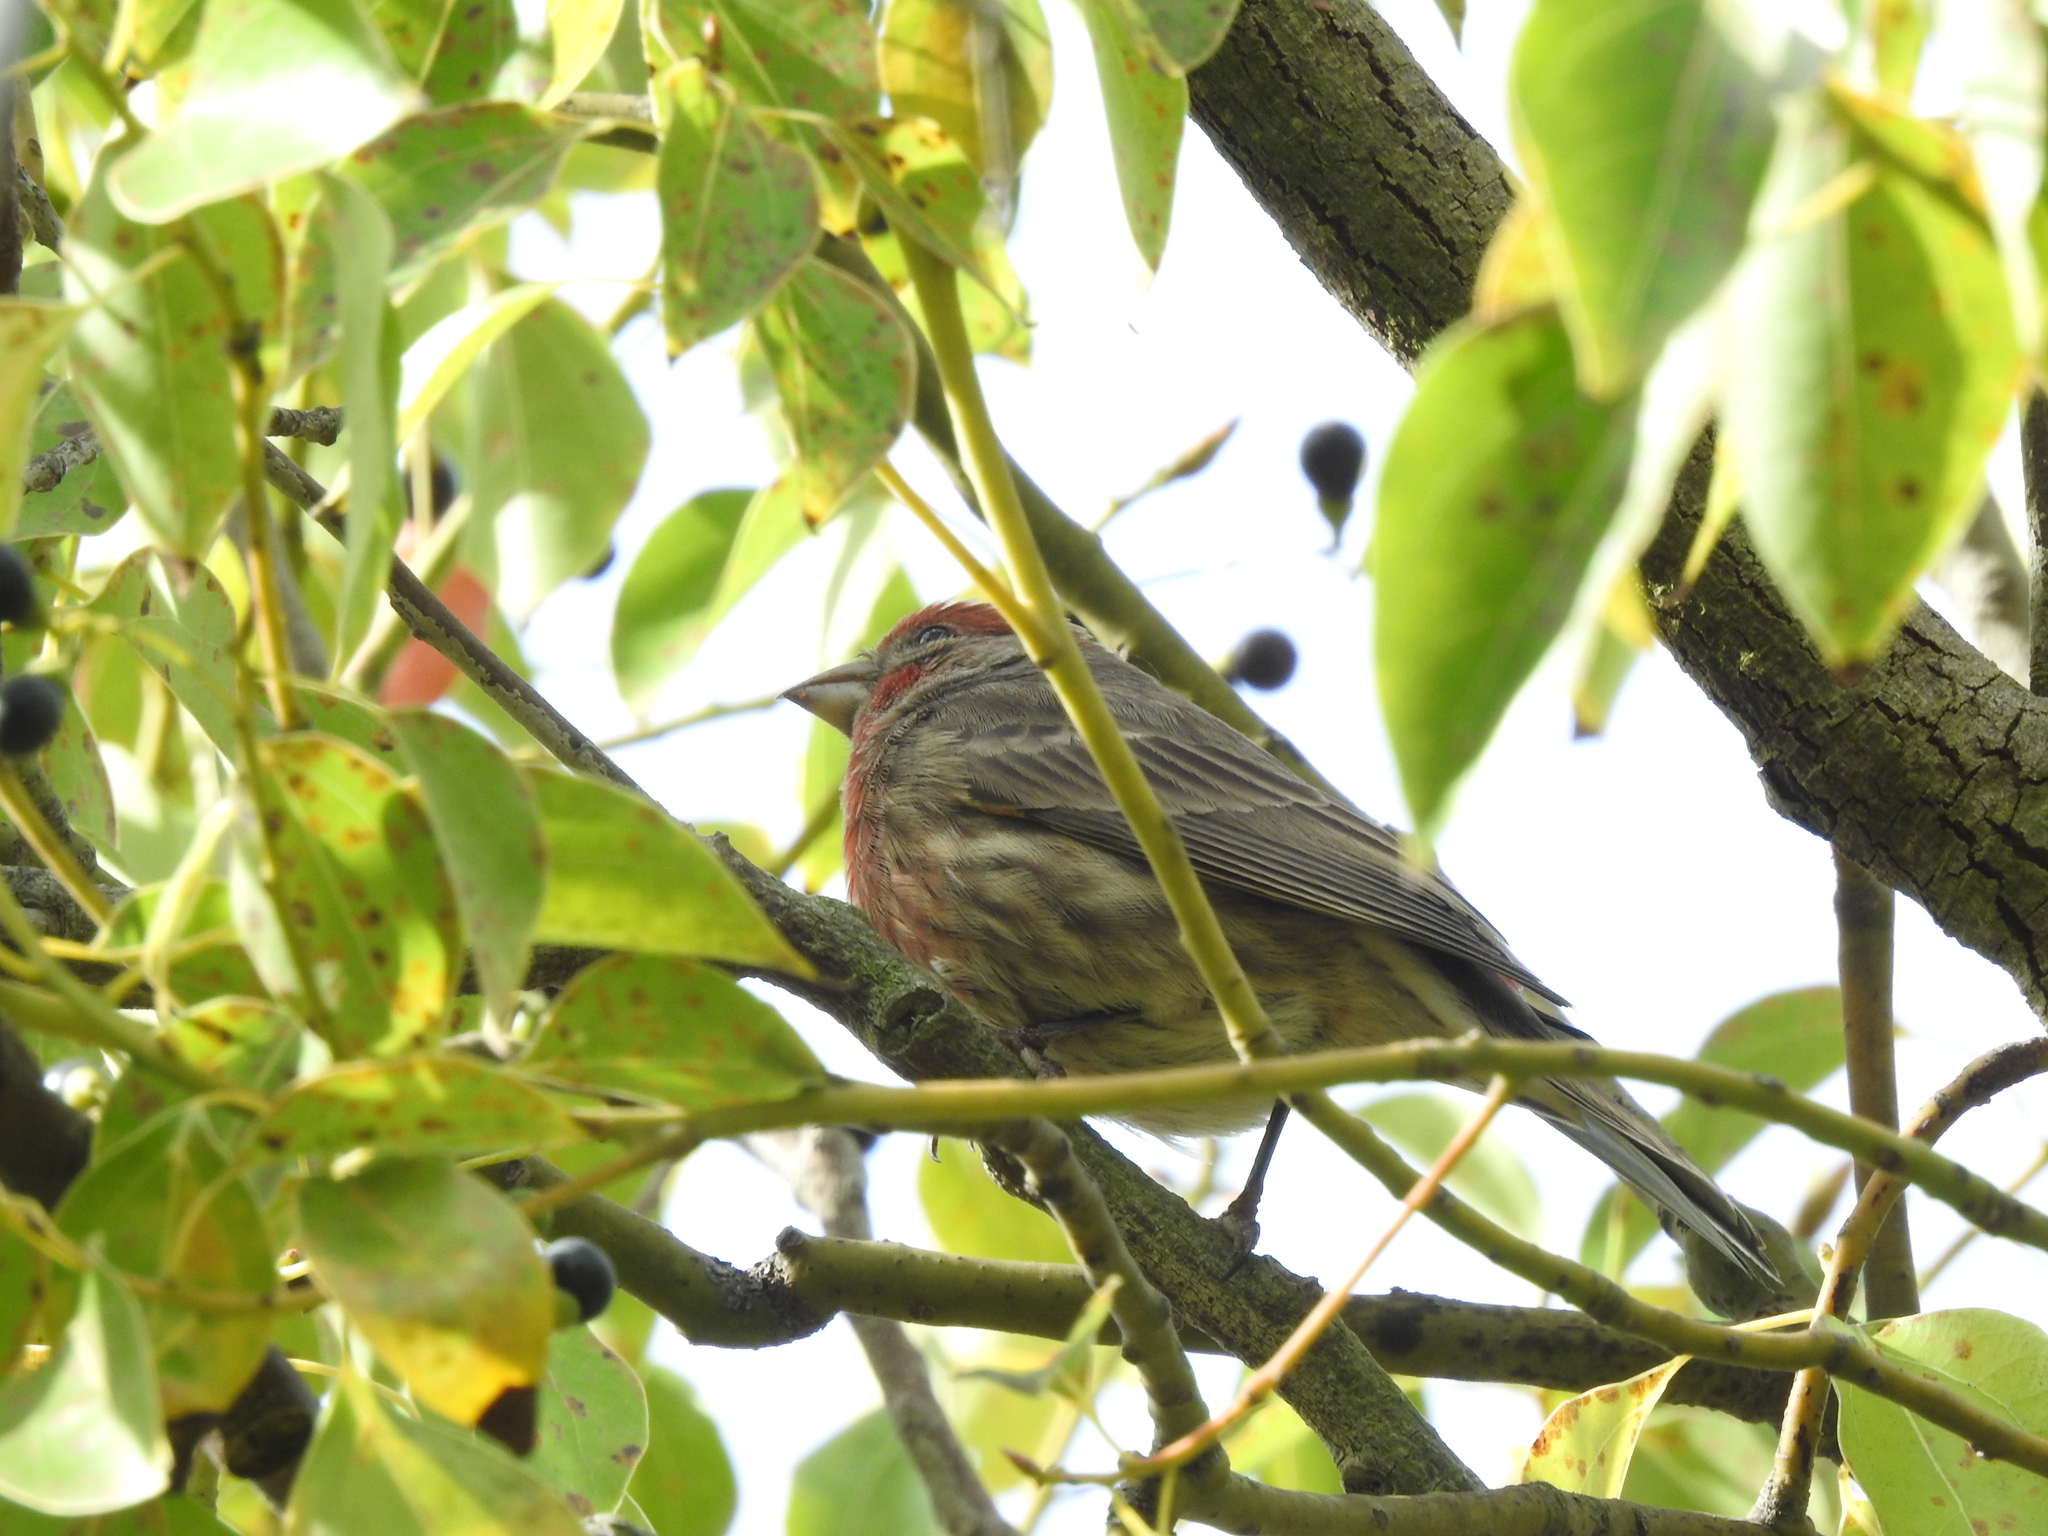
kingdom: Animalia
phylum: Chordata
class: Aves
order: Passeriformes
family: Fringillidae
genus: Haemorhous
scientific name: Haemorhous mexicanus
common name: House finch
